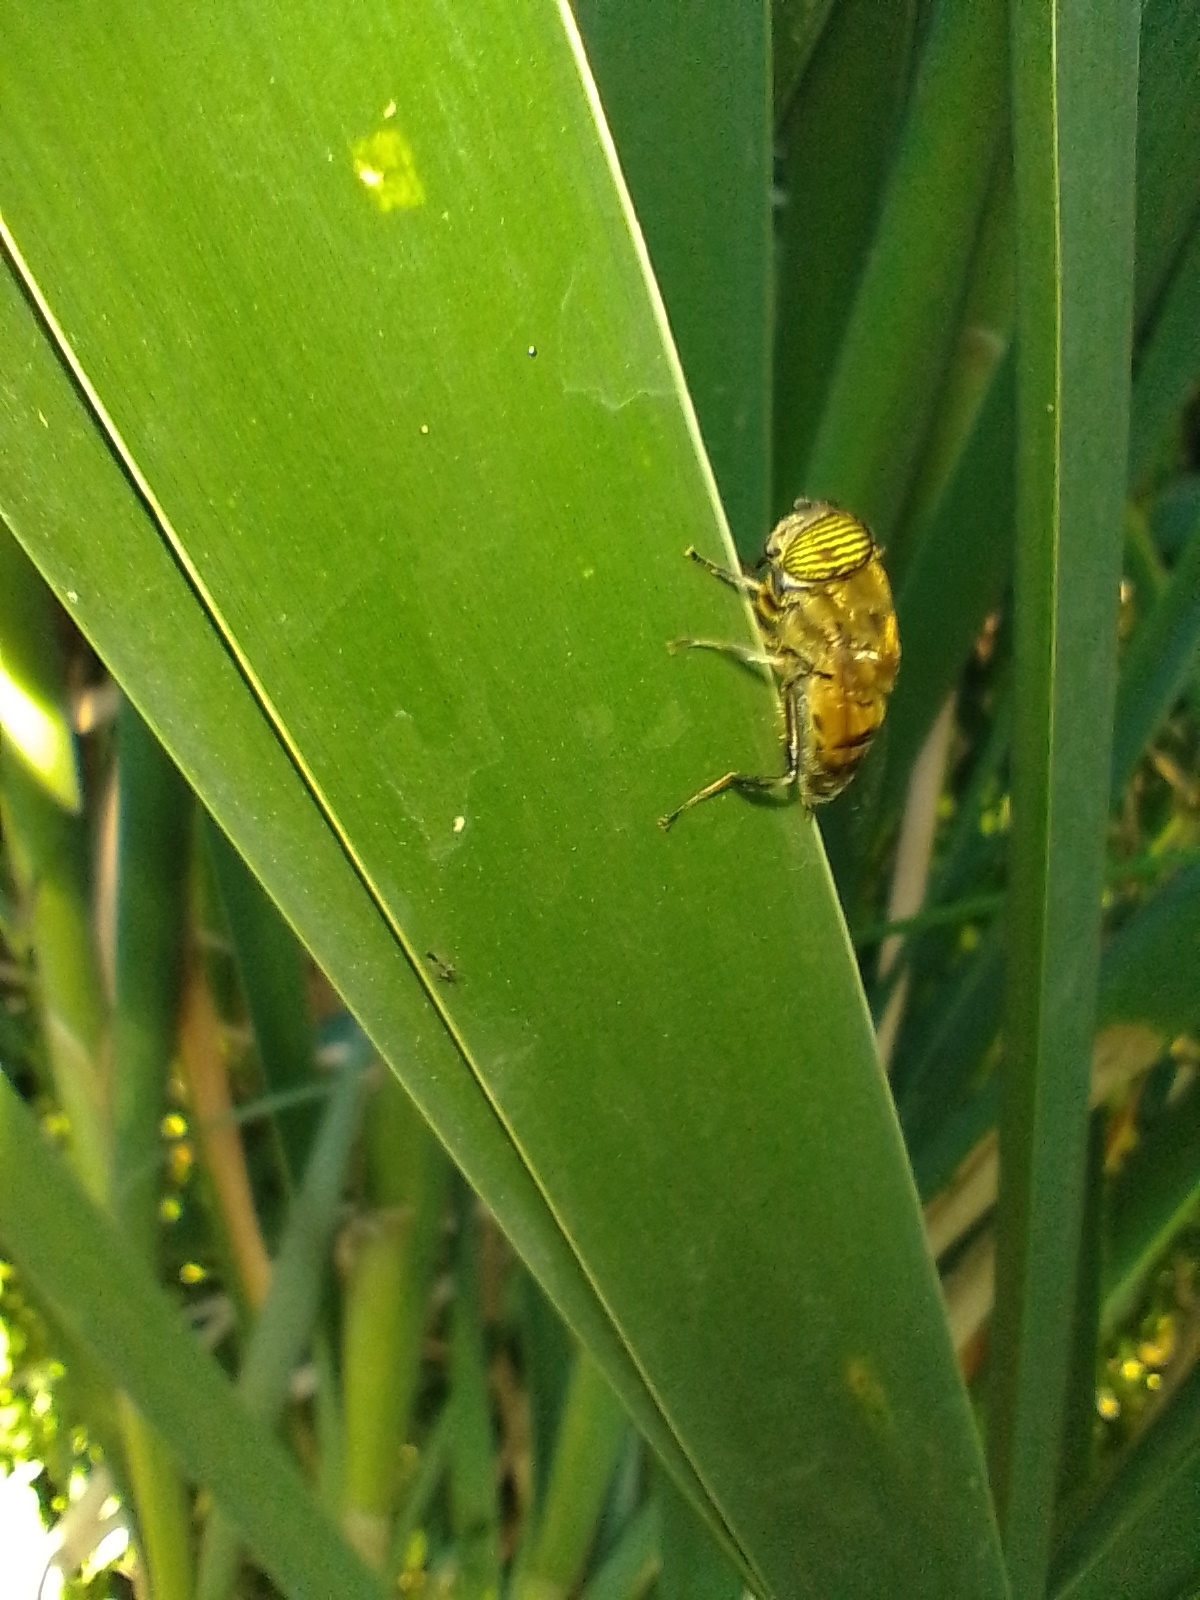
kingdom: Animalia
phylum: Arthropoda
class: Insecta
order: Diptera
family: Syrphidae
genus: Eristalinus
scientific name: Eristalinus taeniops
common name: Syrphid fly
